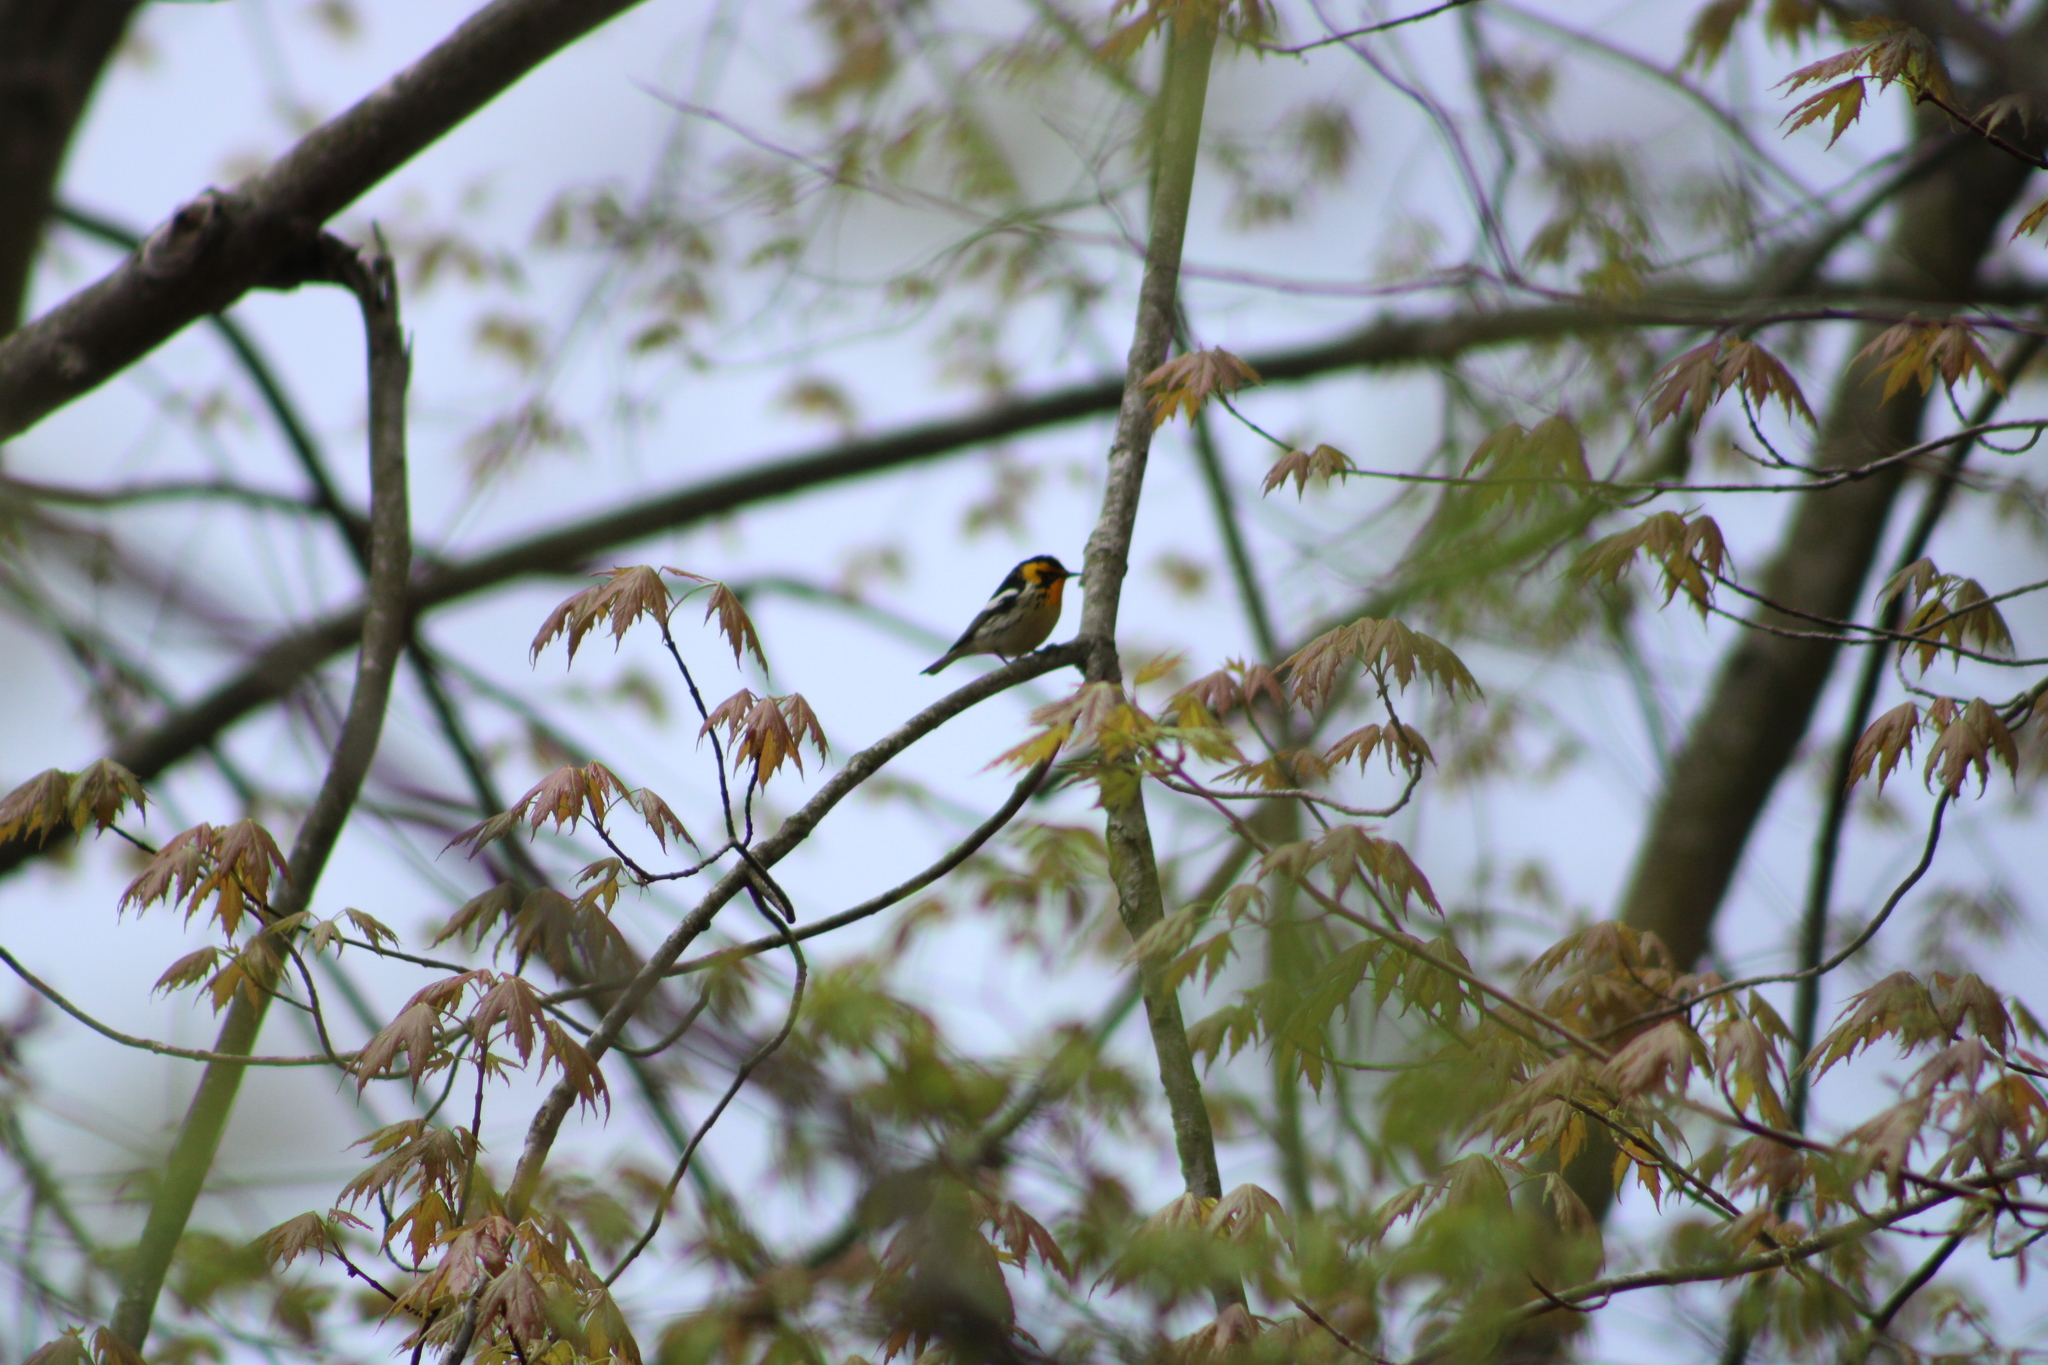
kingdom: Animalia
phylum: Chordata
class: Aves
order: Passeriformes
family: Parulidae
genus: Setophaga
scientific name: Setophaga fusca
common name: Blackburnian warbler
